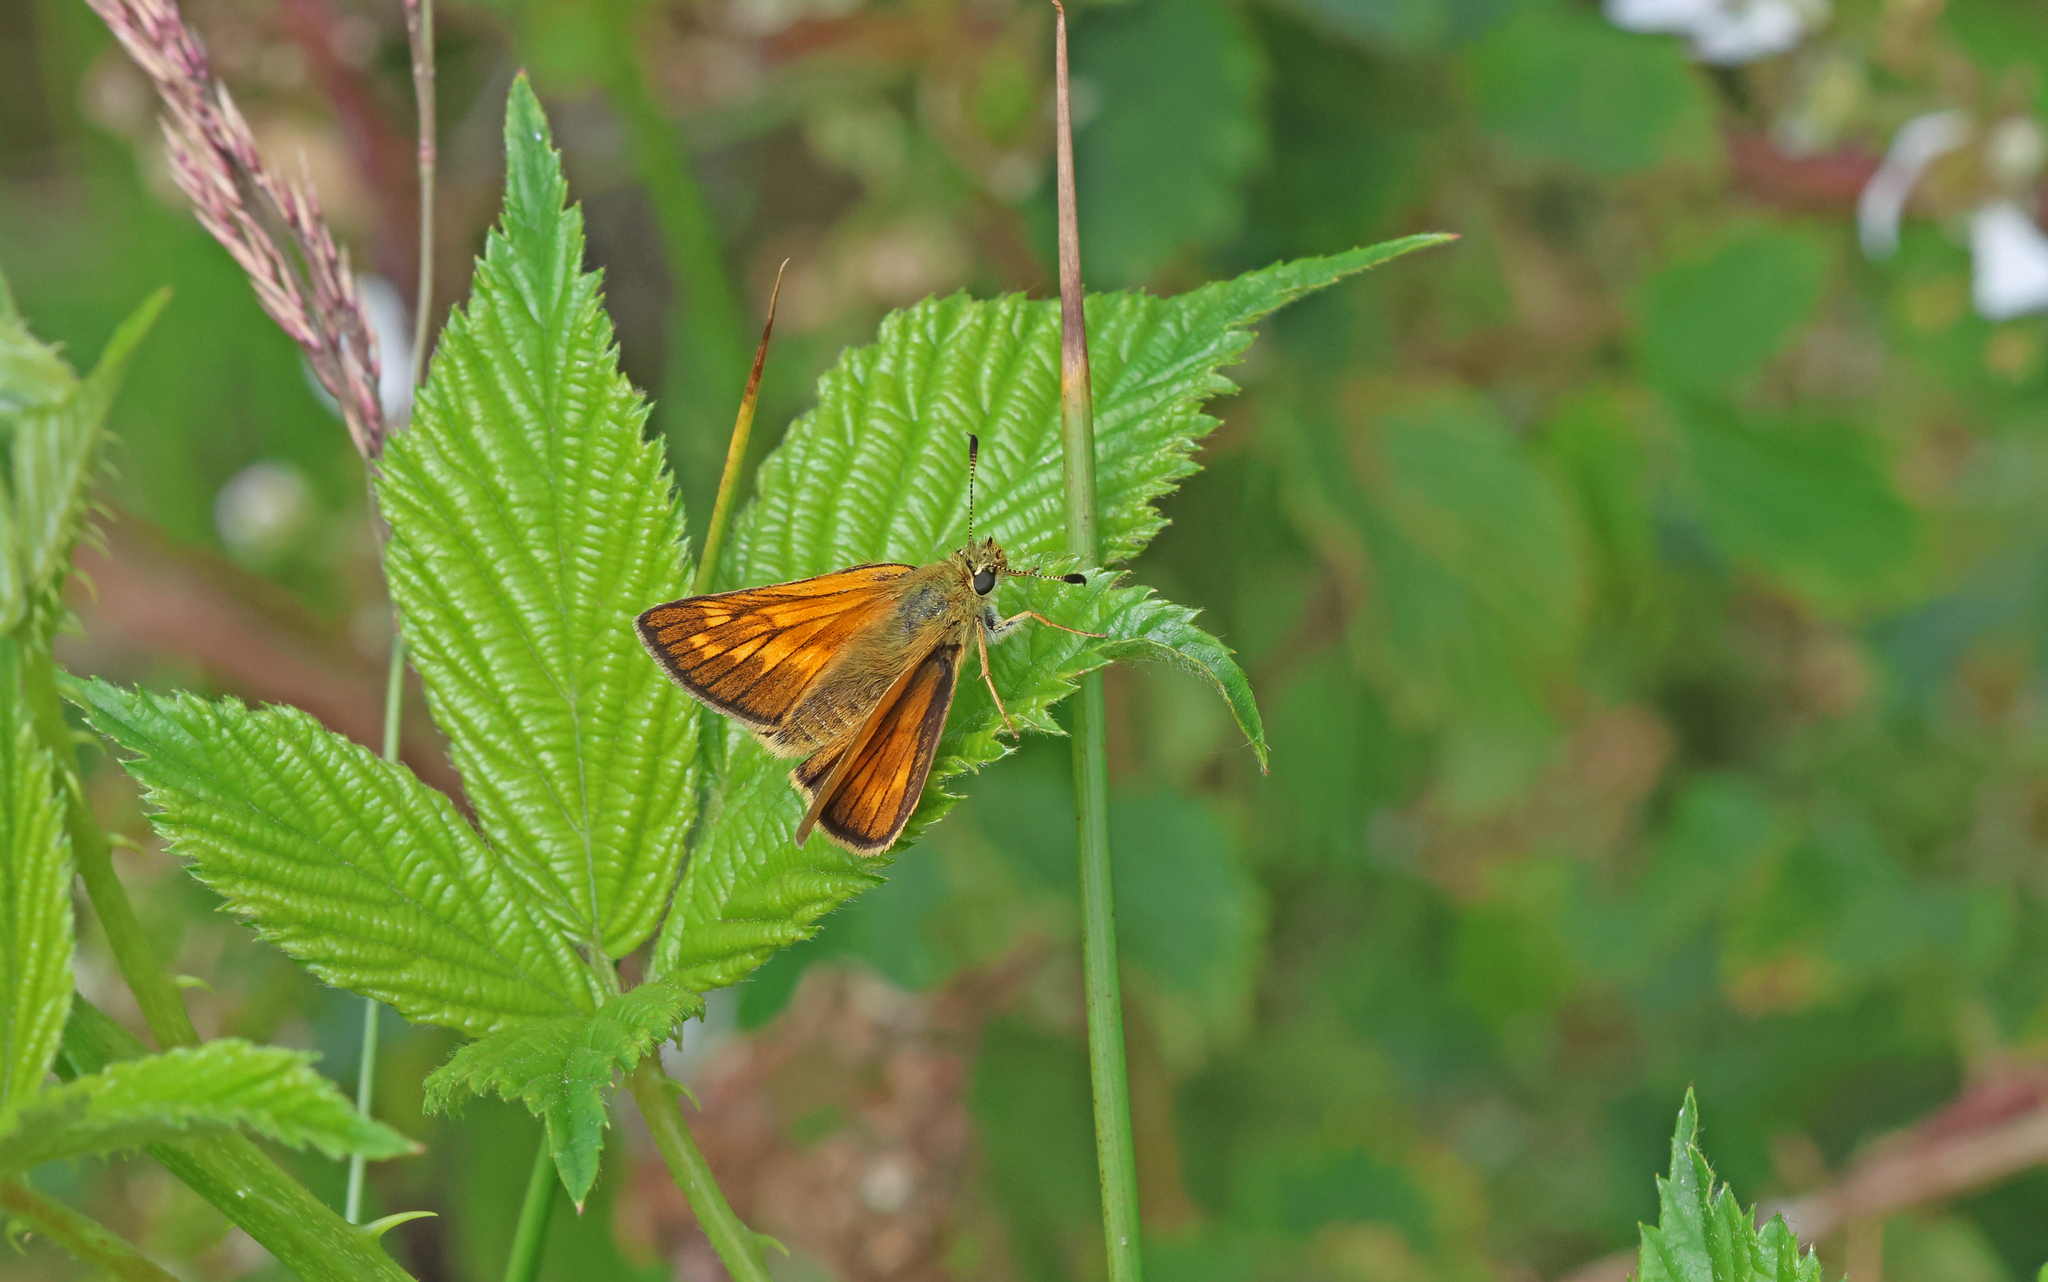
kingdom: Animalia
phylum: Arthropoda
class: Insecta
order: Lepidoptera
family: Hesperiidae
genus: Ochlodes
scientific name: Ochlodes venata
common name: Large skipper
